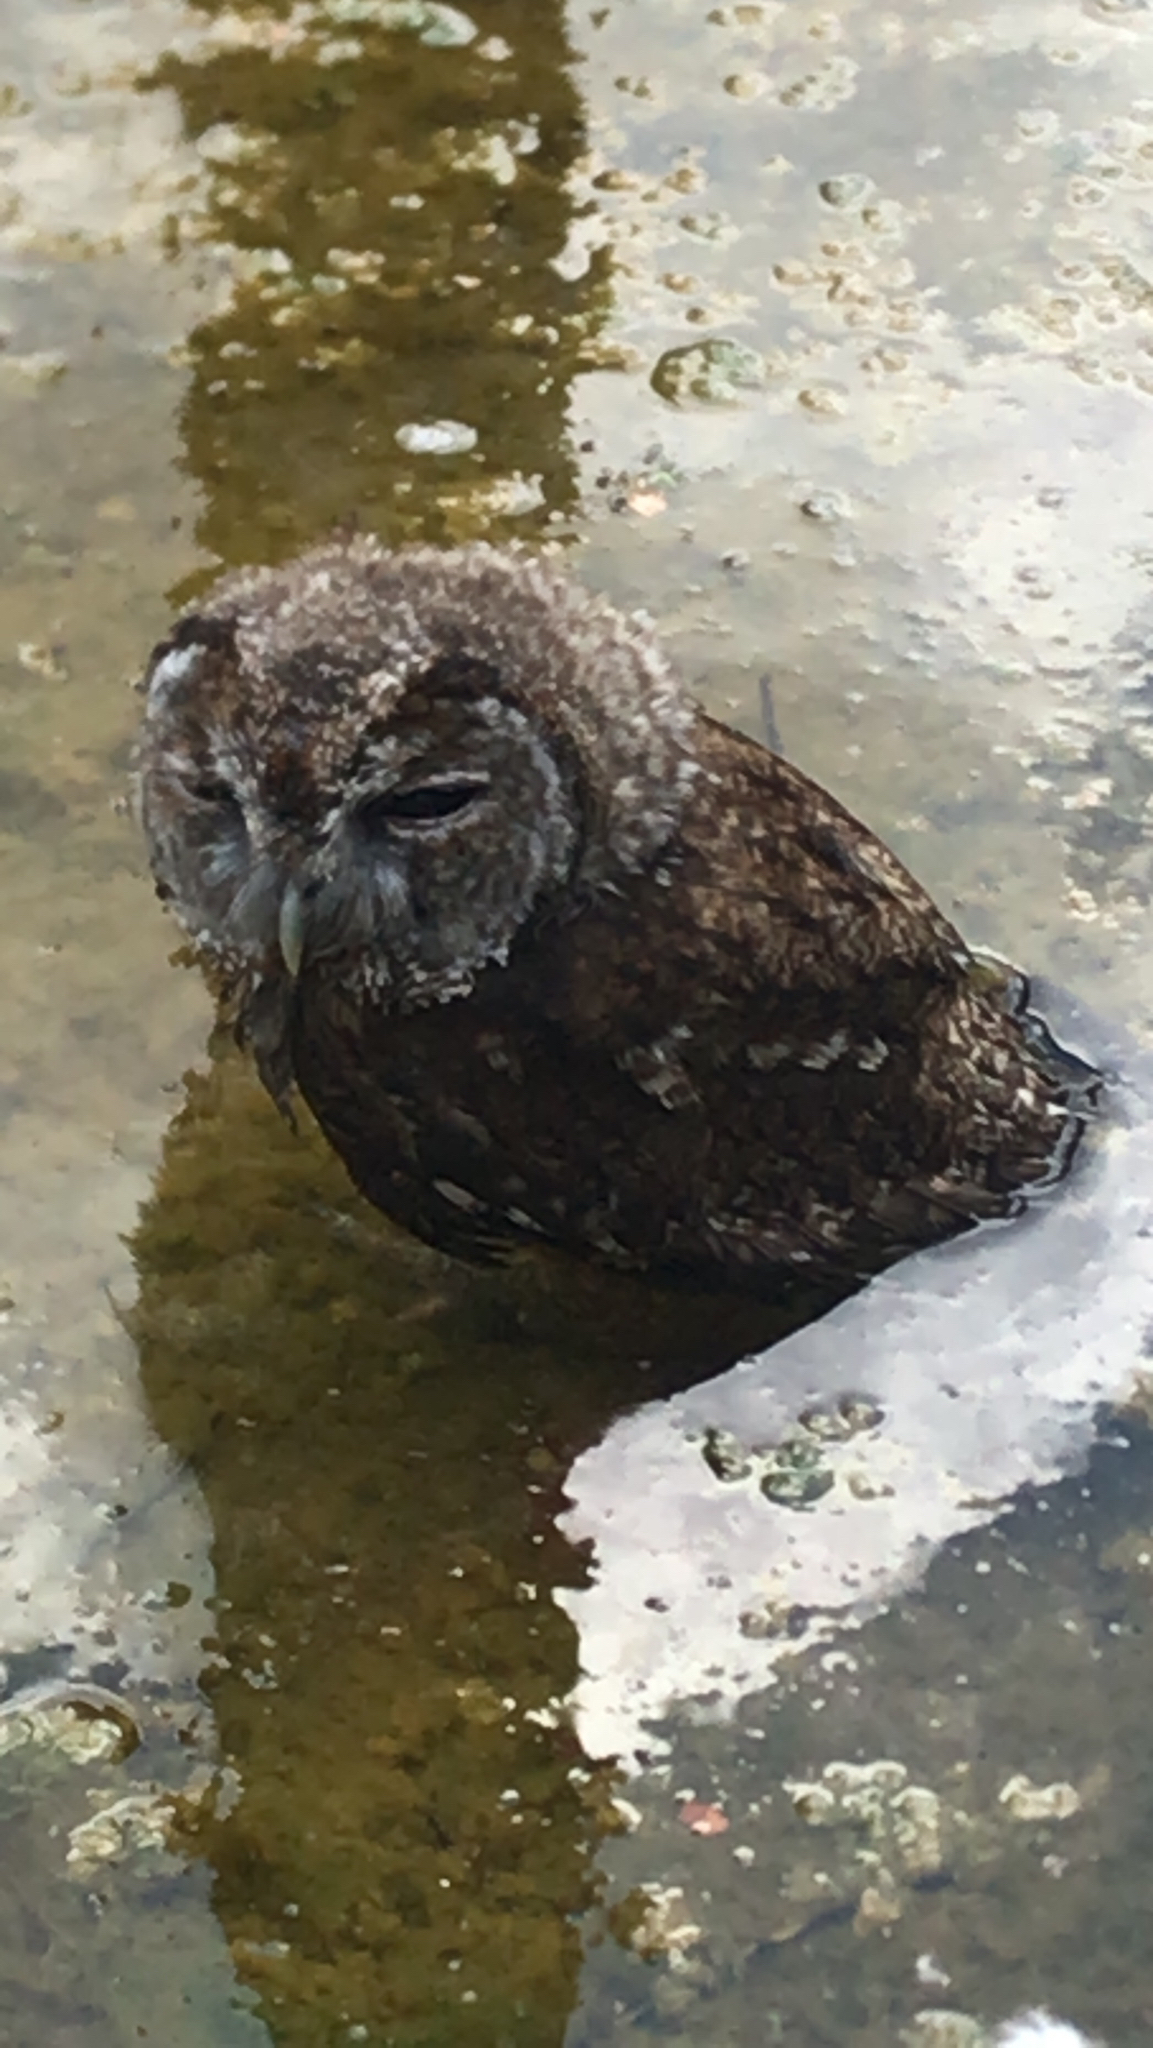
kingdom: Animalia
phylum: Chordata
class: Aves
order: Strigiformes
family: Strigidae
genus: Strix
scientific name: Strix aluco
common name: Tawny owl
